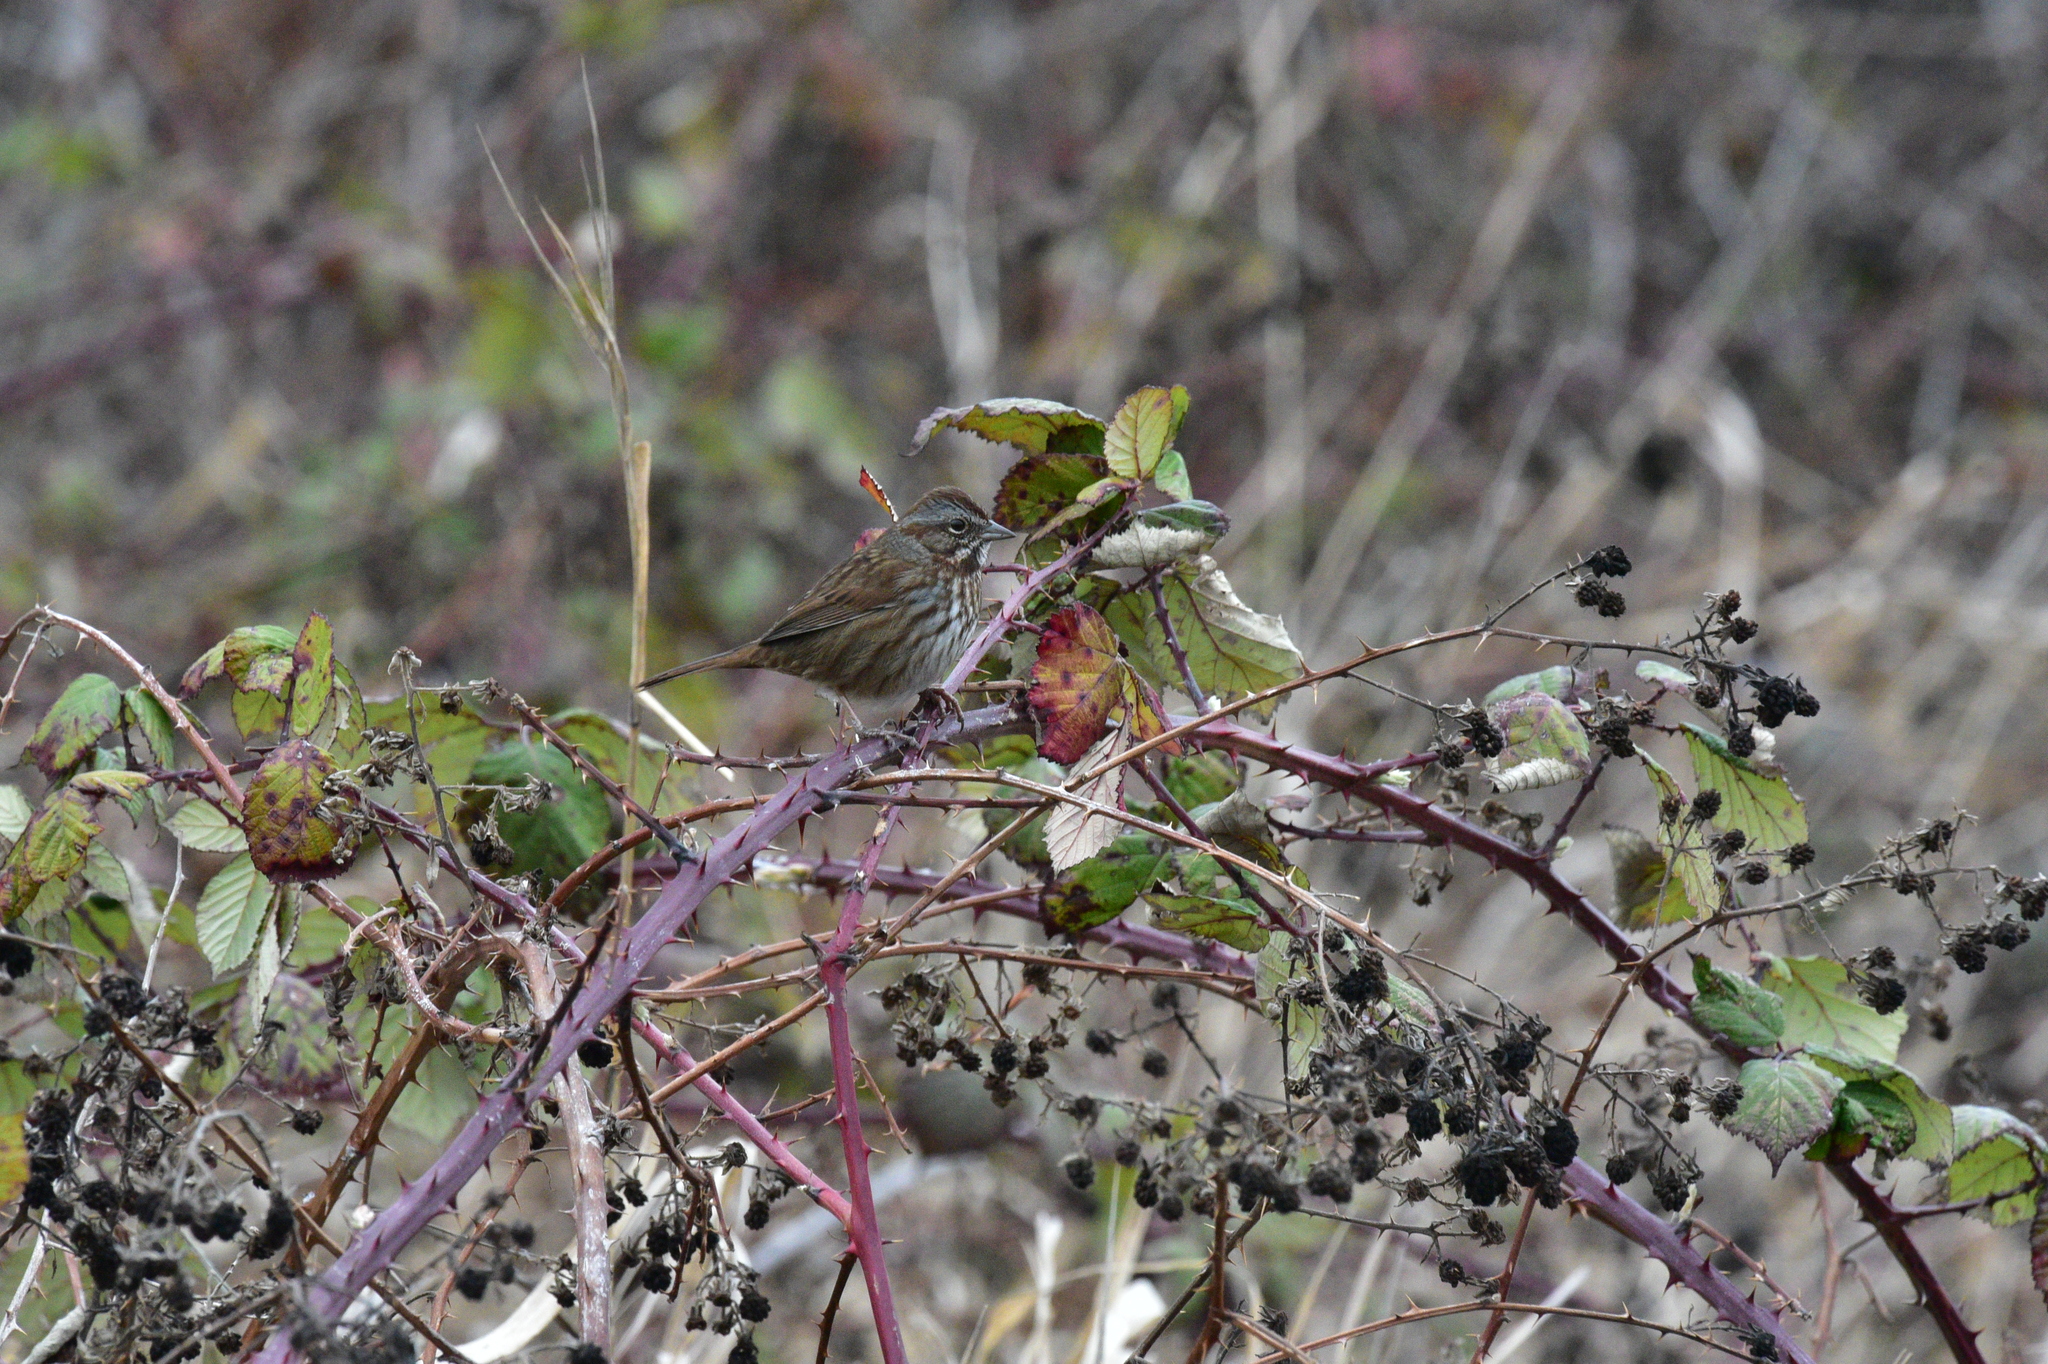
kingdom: Animalia
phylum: Chordata
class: Aves
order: Passeriformes
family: Passerellidae
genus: Melospiza
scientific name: Melospiza melodia
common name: Song sparrow
